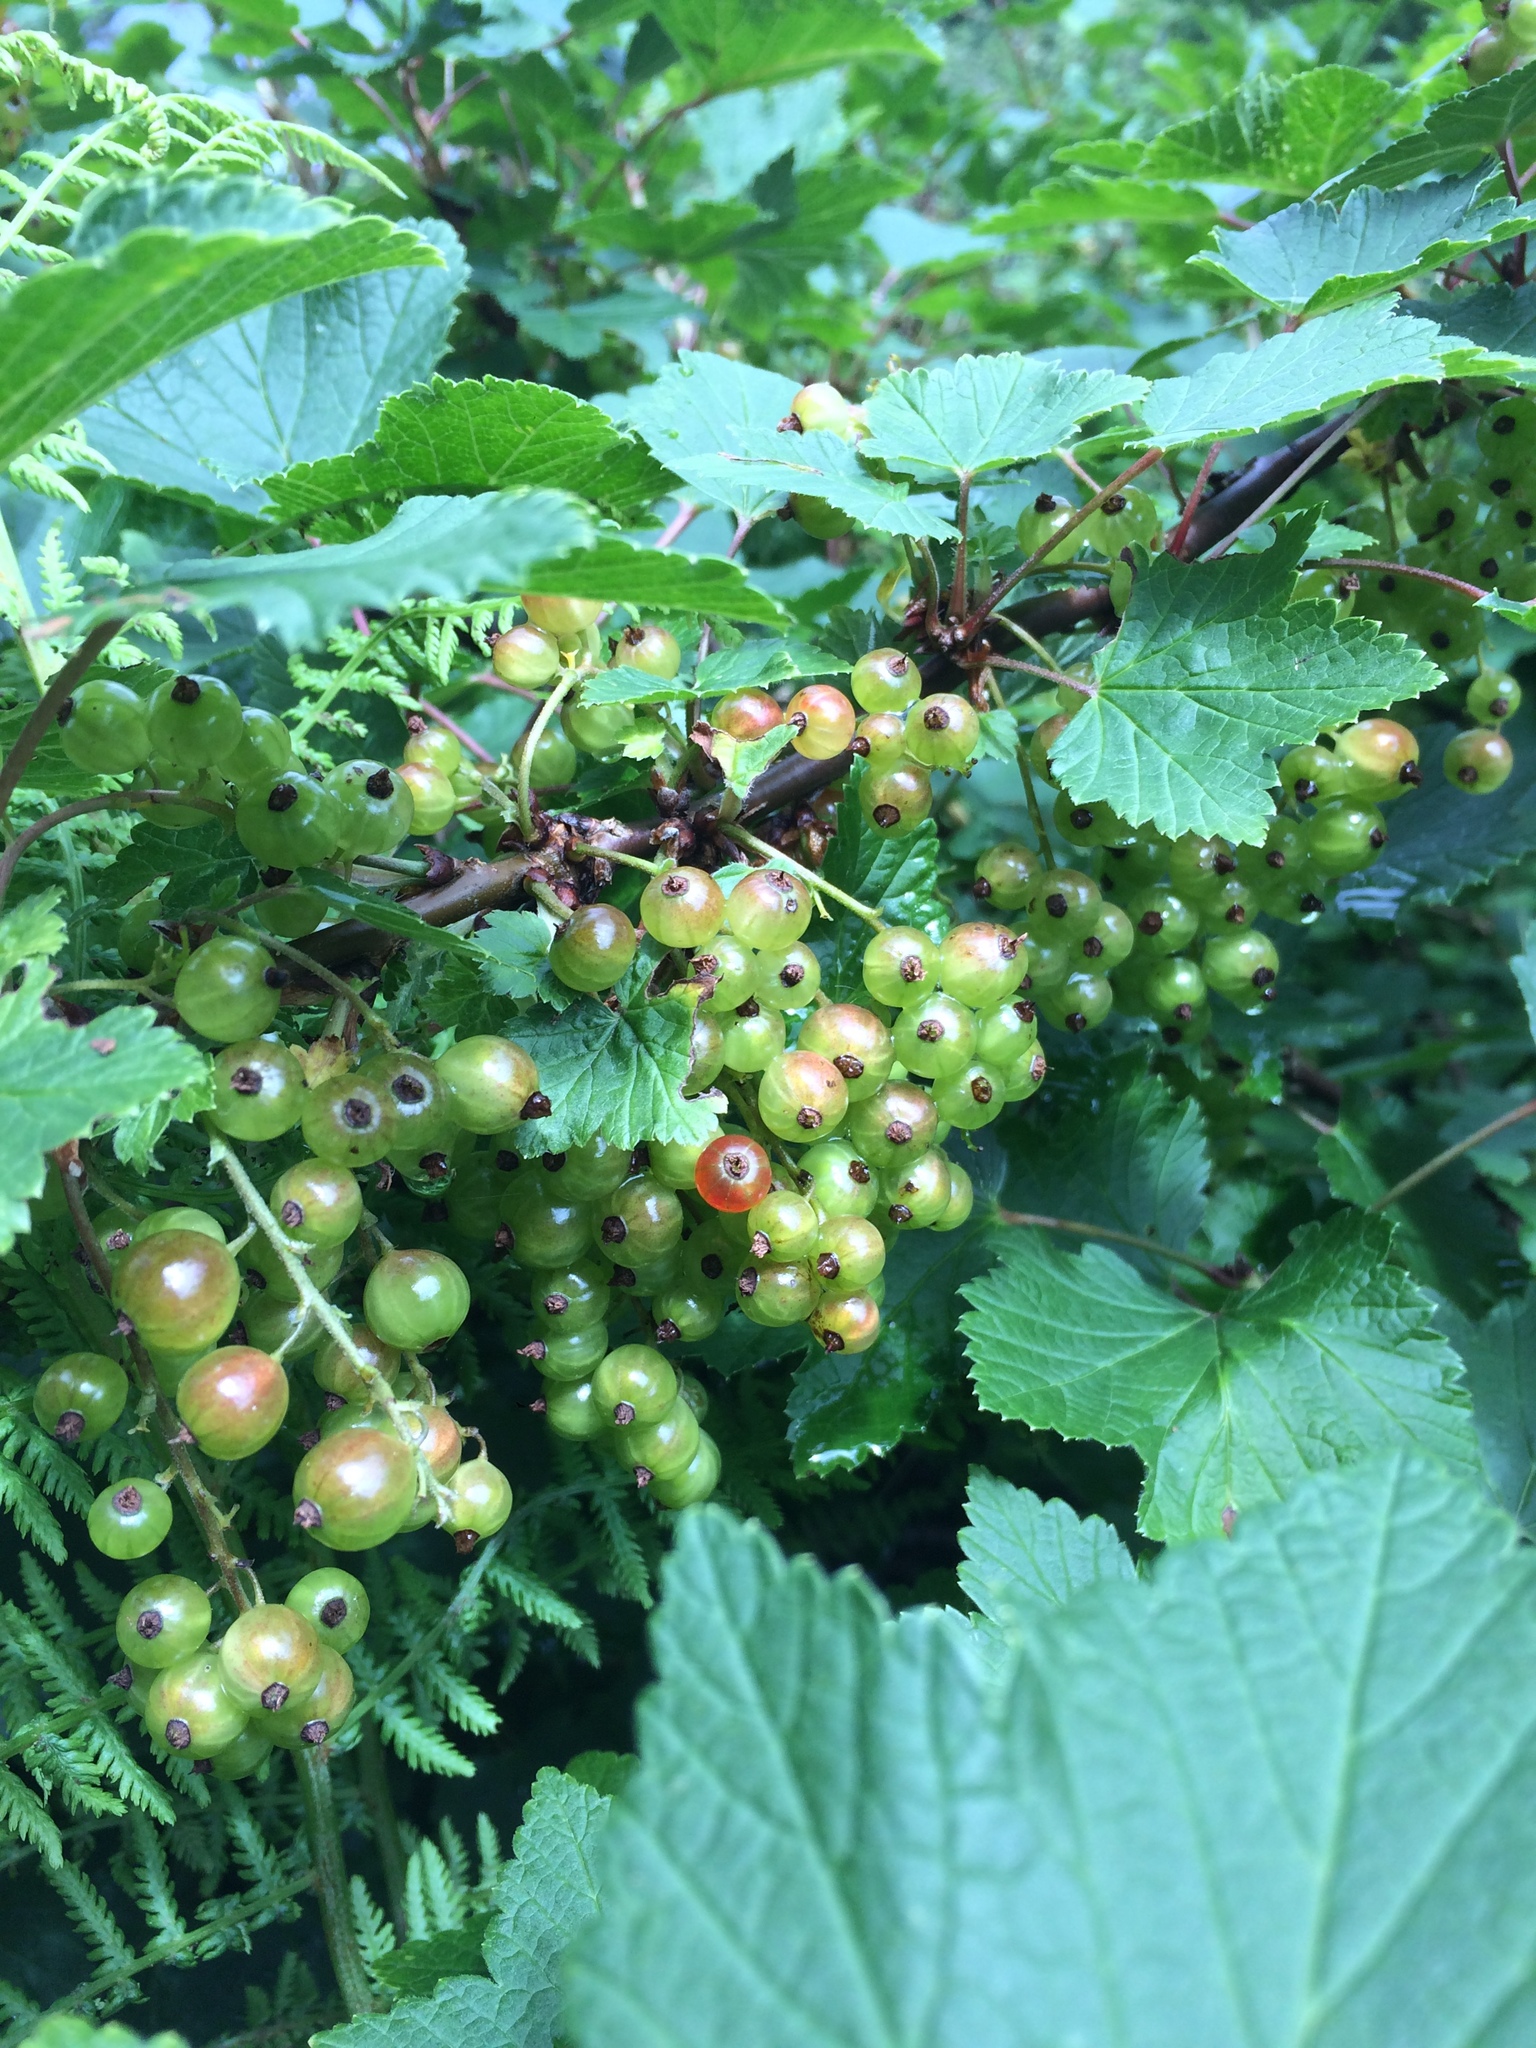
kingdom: Plantae
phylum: Tracheophyta
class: Magnoliopsida
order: Saxifragales
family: Grossulariaceae
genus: Ribes
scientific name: Ribes rubrum
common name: Red currant
